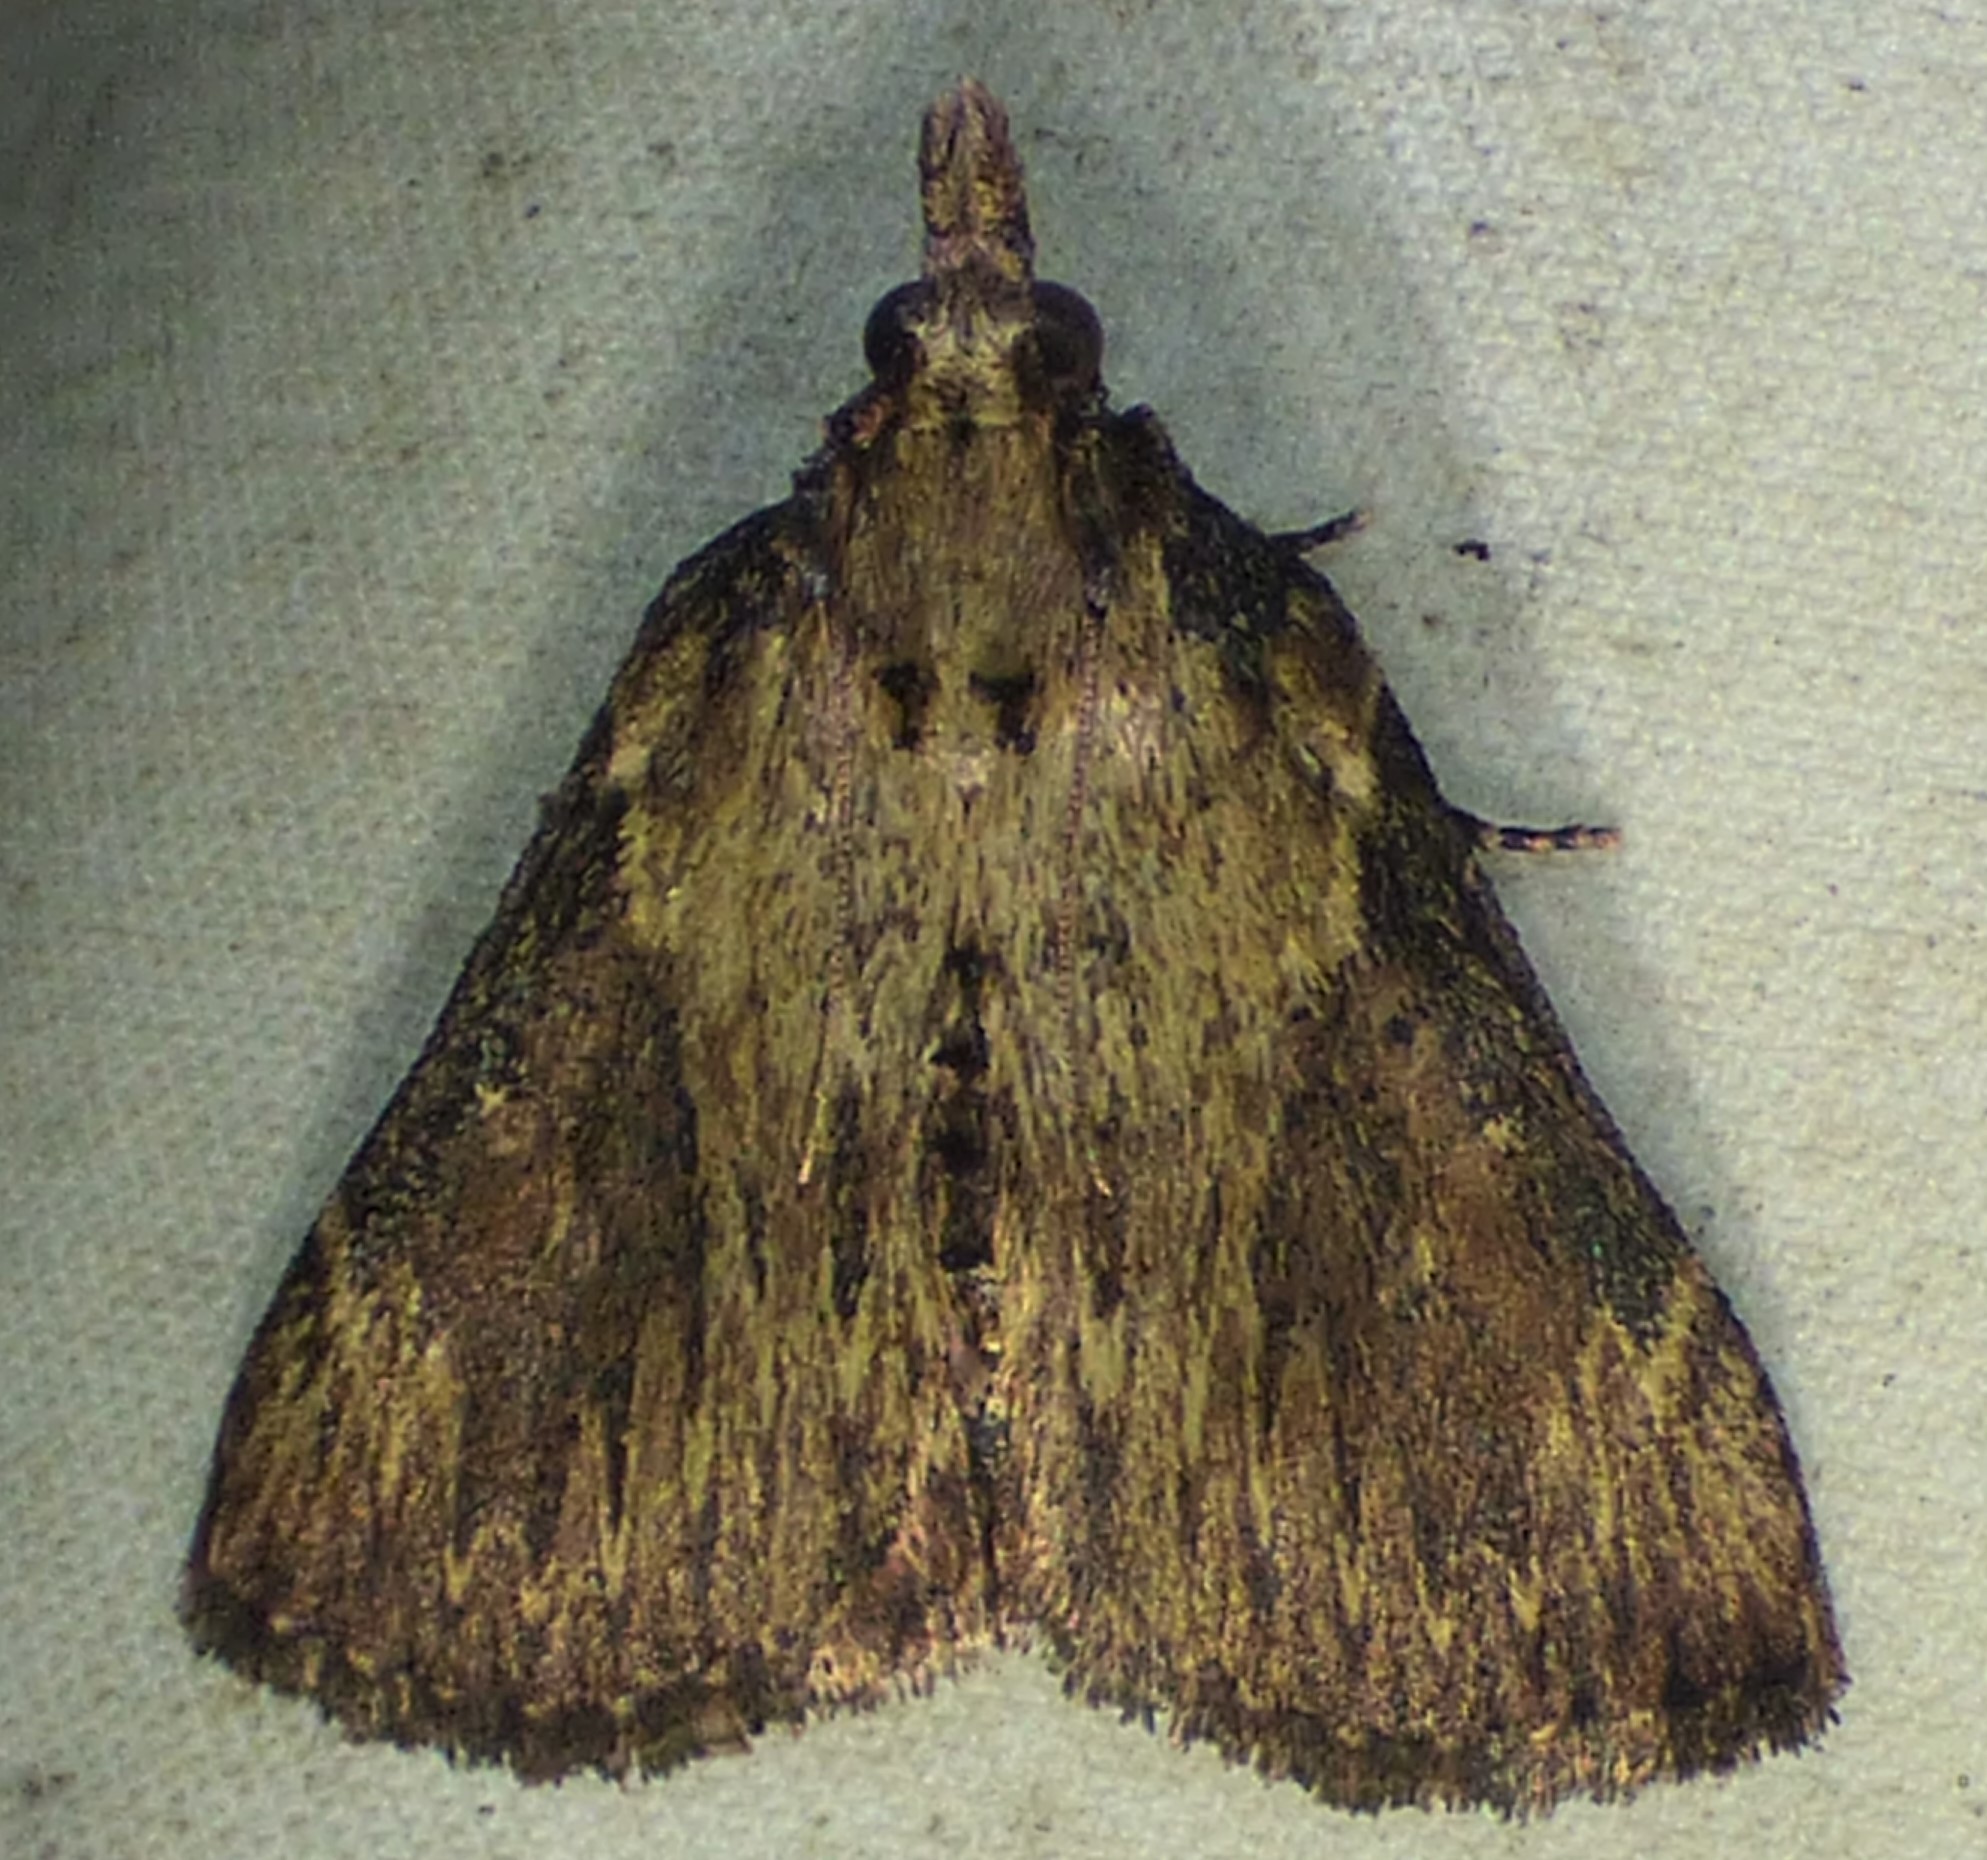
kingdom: Animalia
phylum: Arthropoda
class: Insecta
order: Lepidoptera
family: Pyralidae
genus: Omphalocera
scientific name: Omphalocera cariosa
